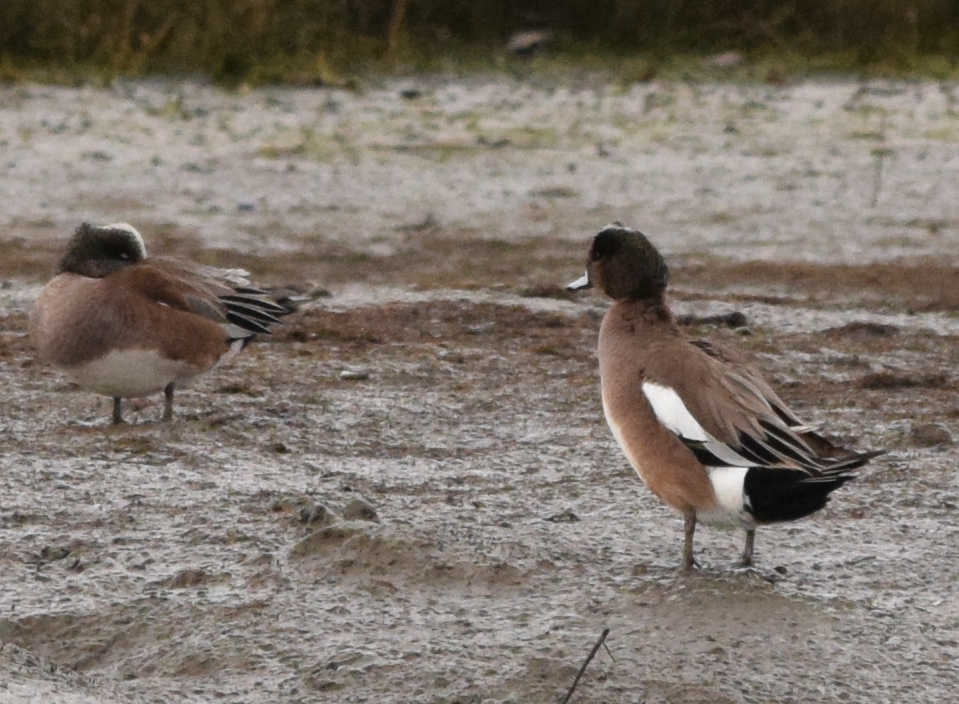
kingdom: Animalia
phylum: Chordata
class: Aves
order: Anseriformes
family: Anatidae
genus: Mareca
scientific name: Mareca americana
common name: American wigeon
